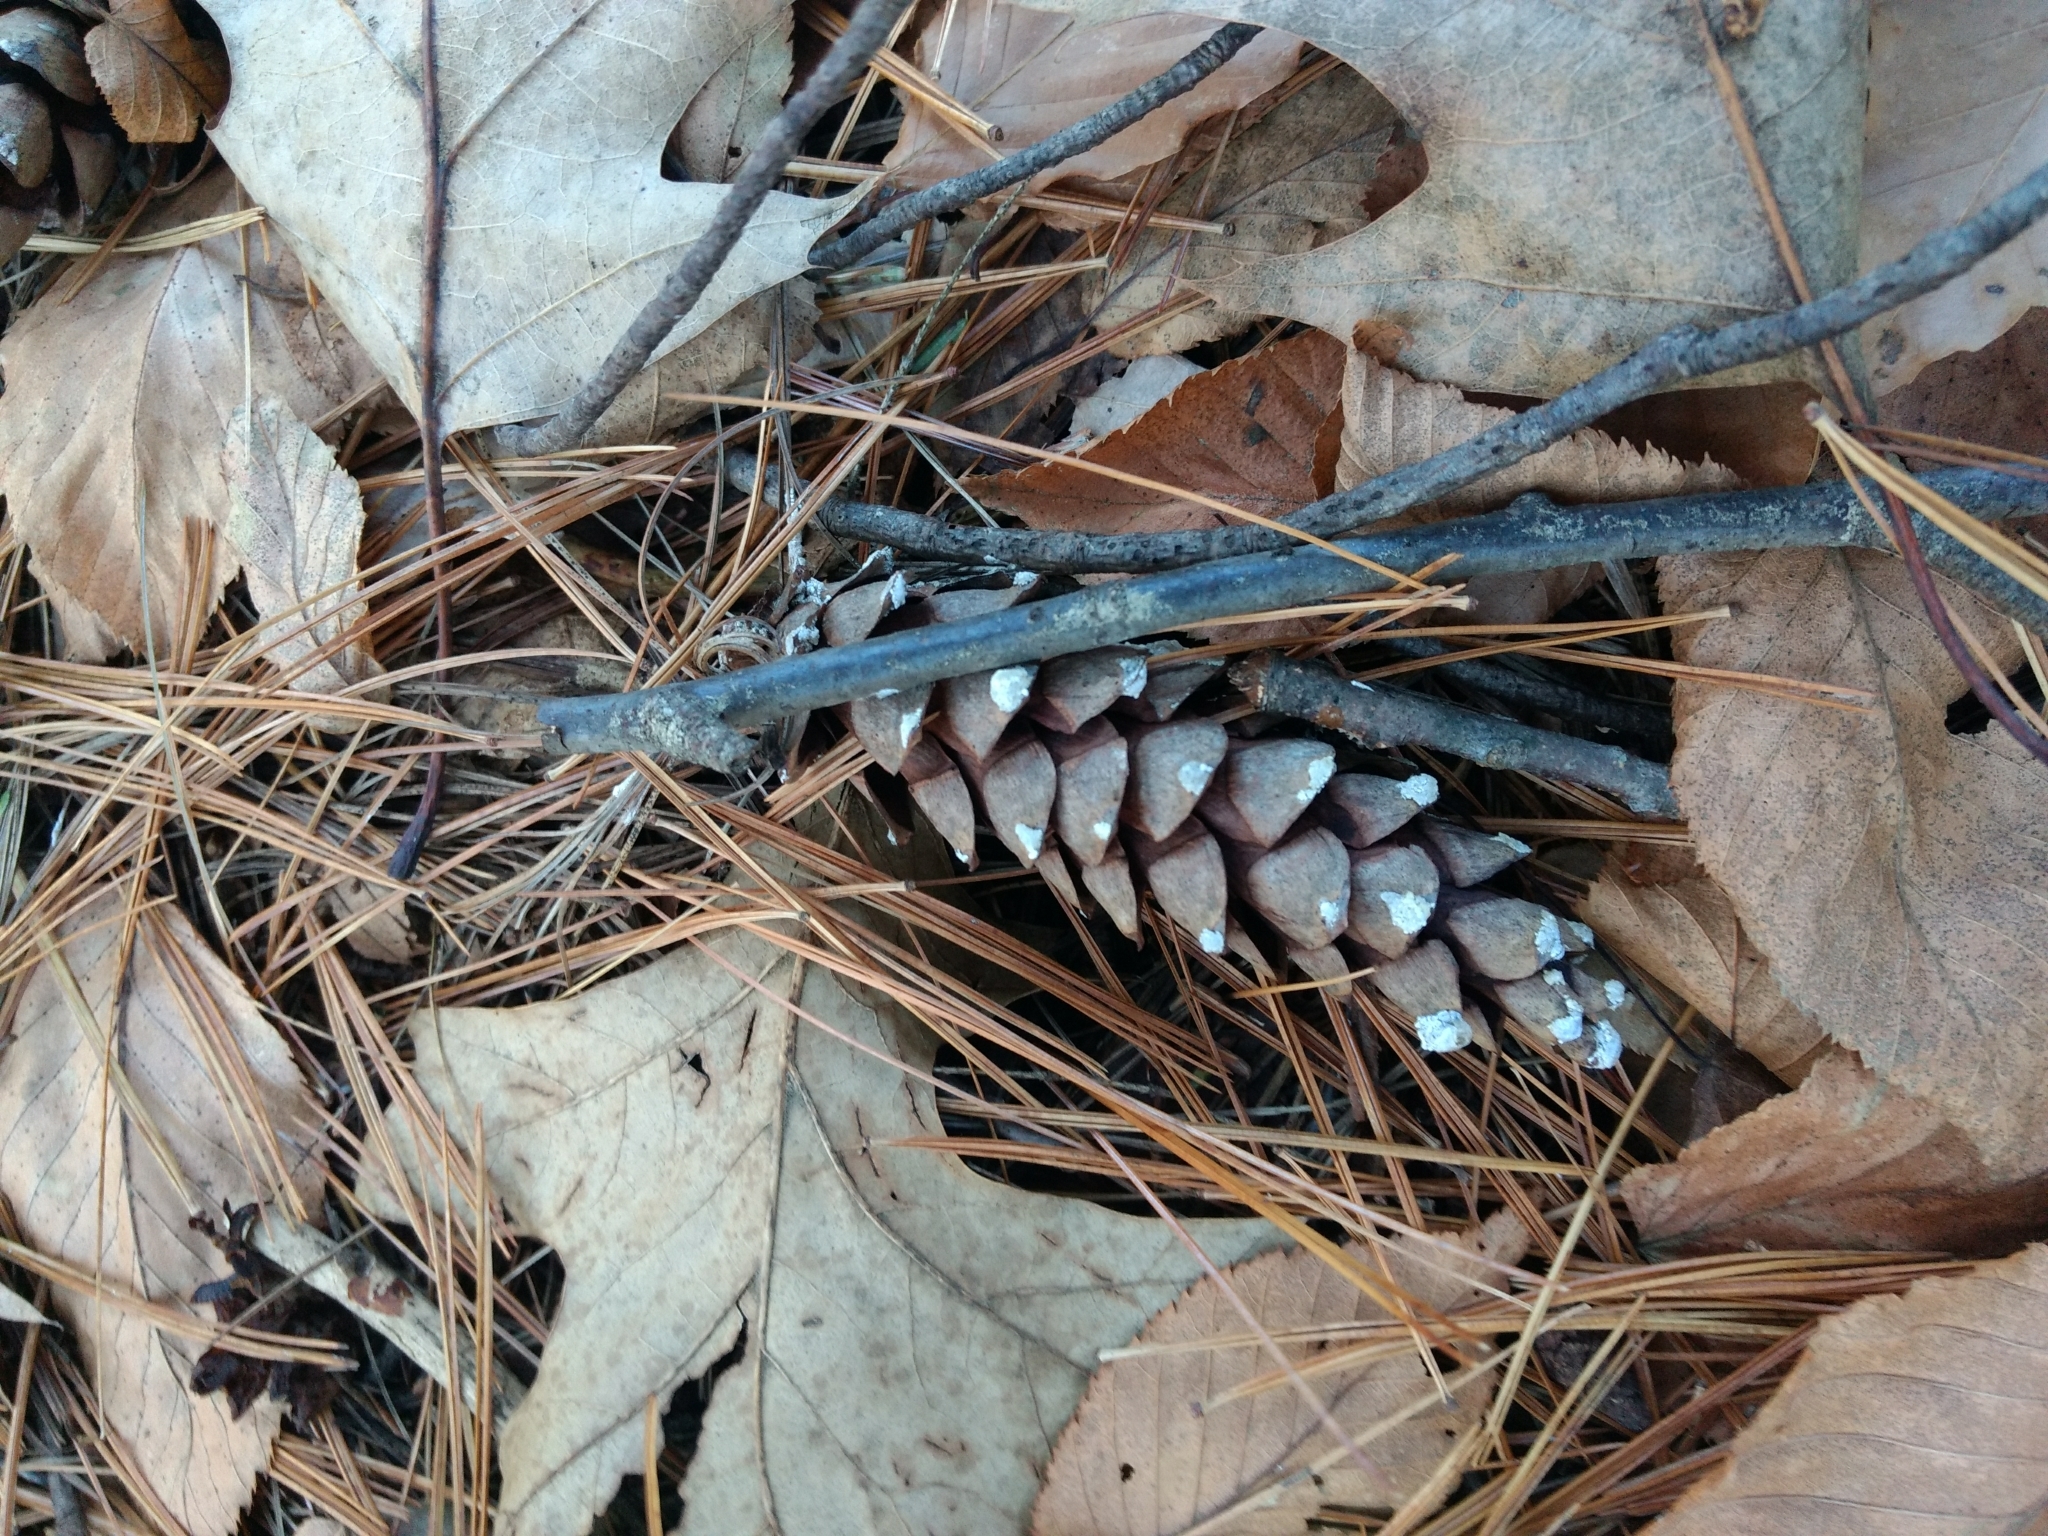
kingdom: Plantae
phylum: Tracheophyta
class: Pinopsida
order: Pinales
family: Pinaceae
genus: Pinus
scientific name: Pinus strobus
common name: Weymouth pine
